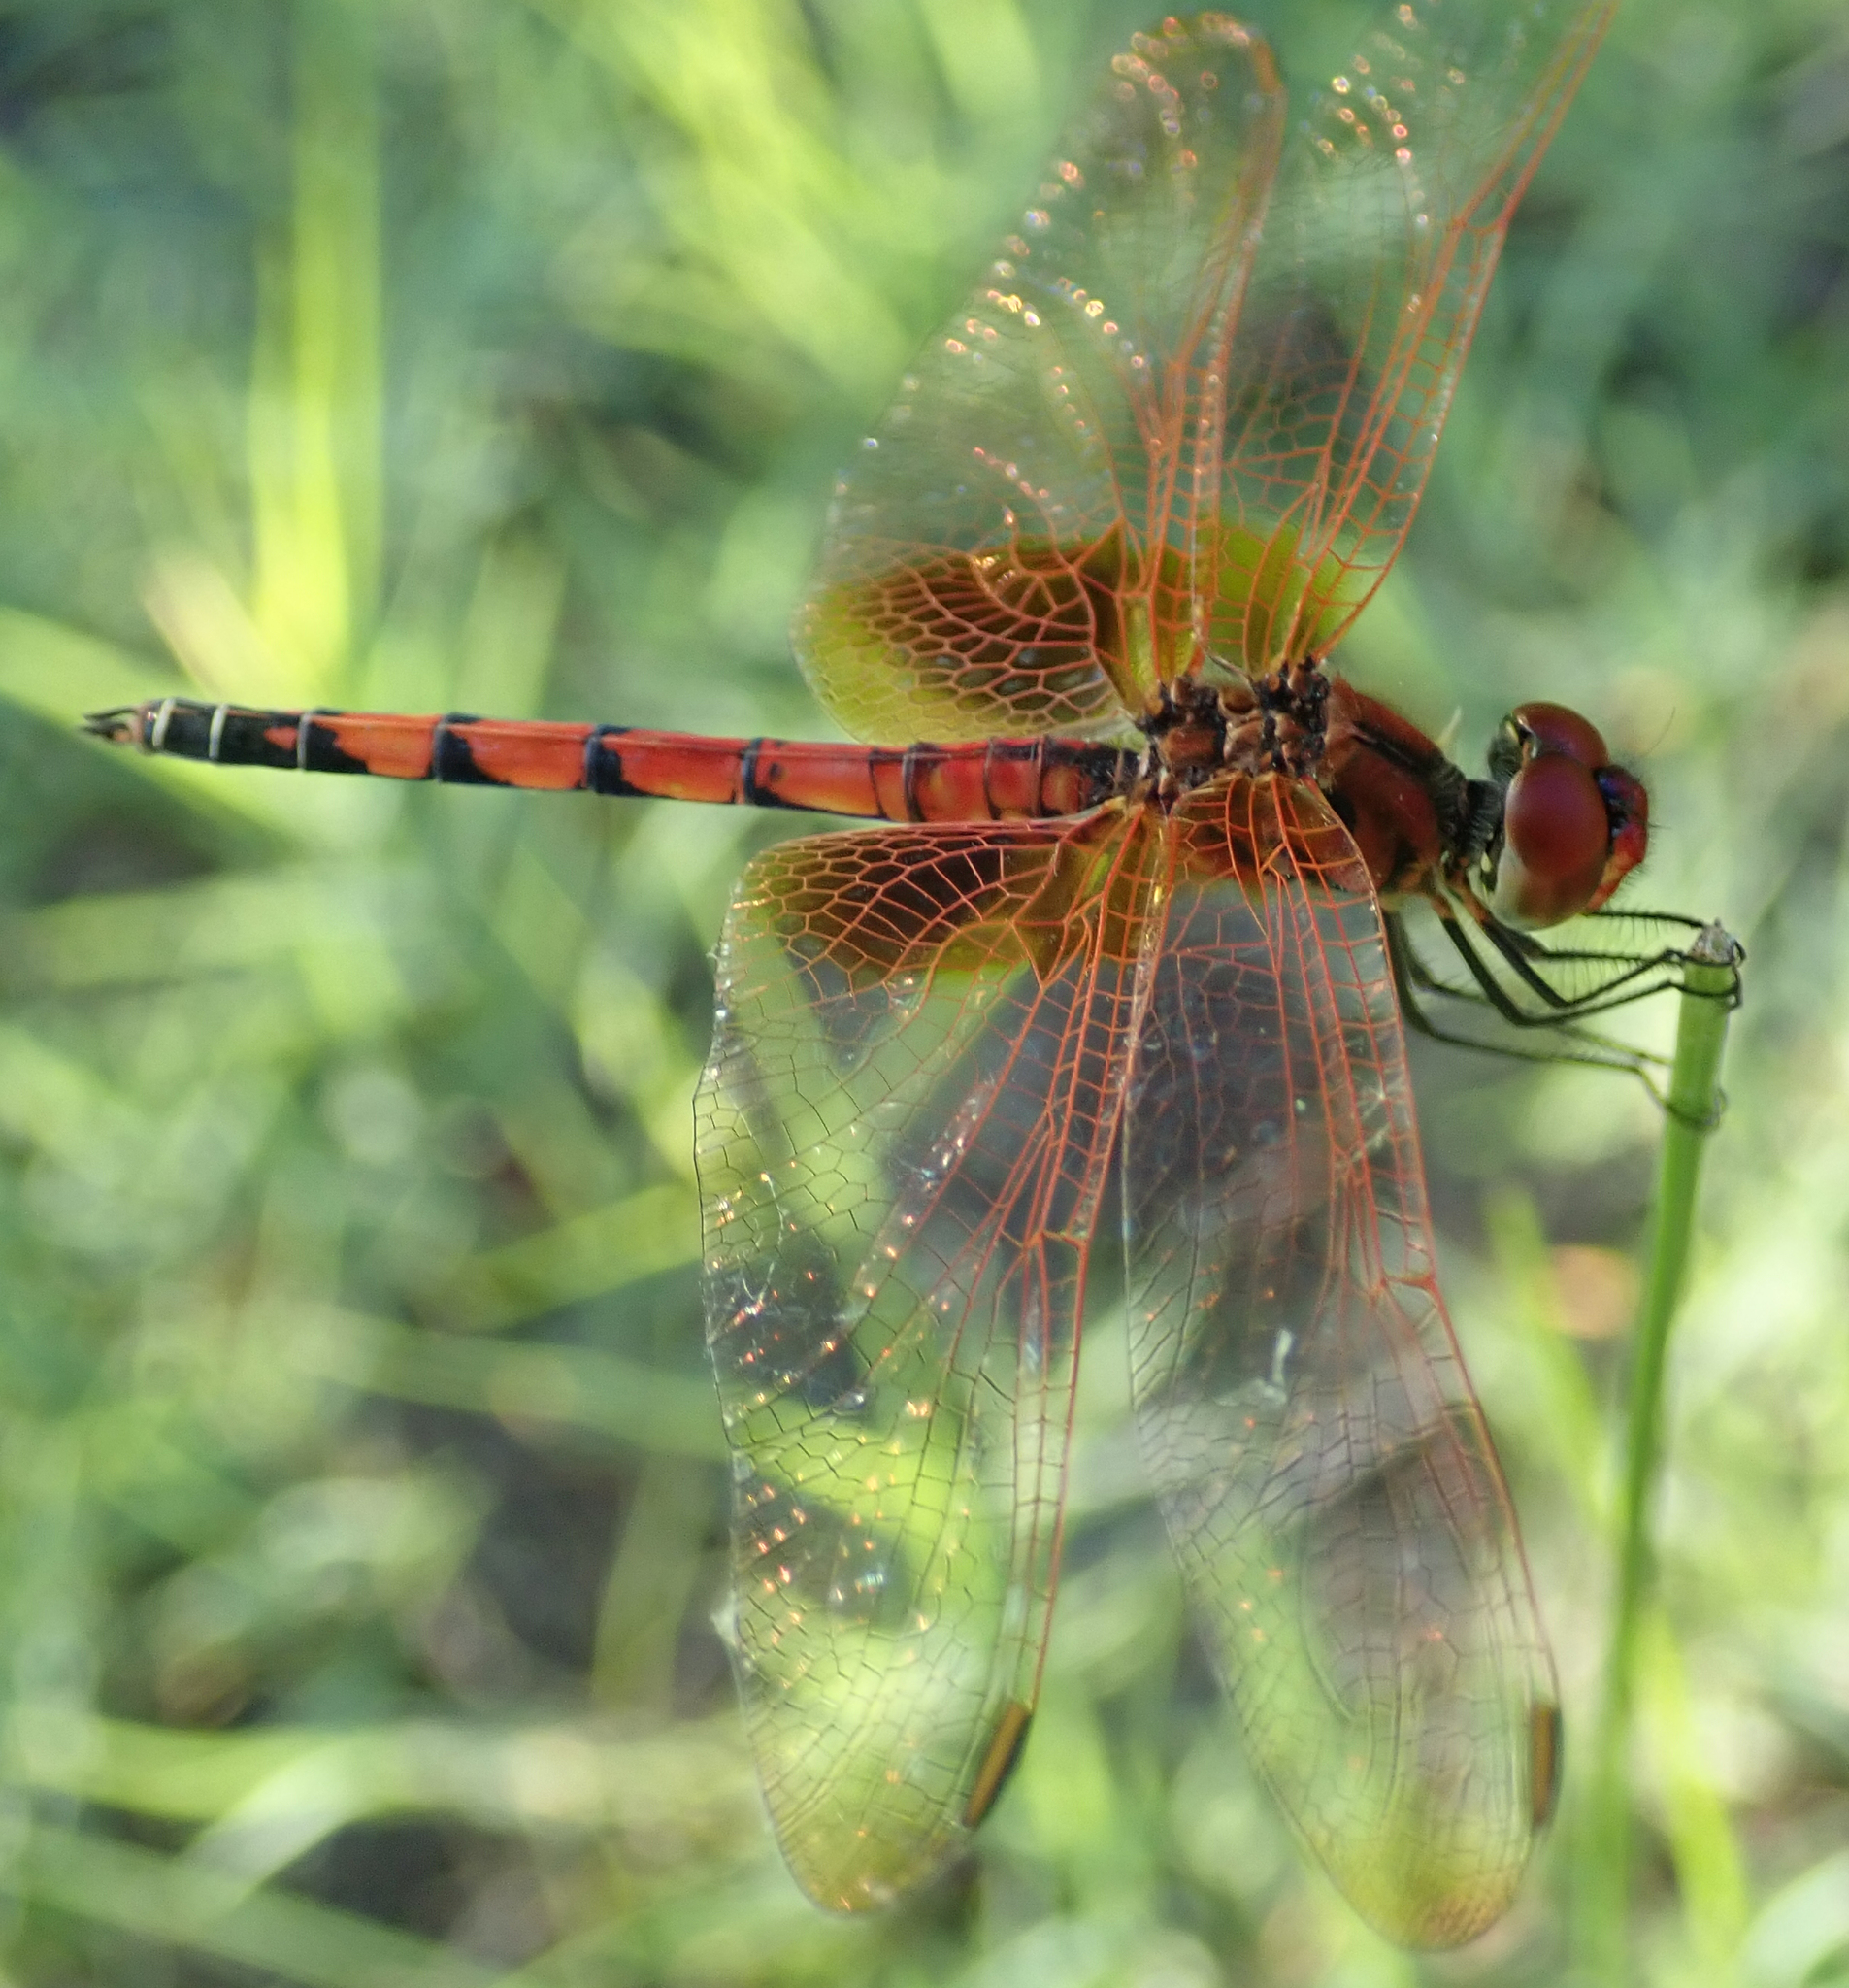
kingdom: Animalia
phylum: Arthropoda
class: Insecta
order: Odonata
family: Libellulidae
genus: Trithemis
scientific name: Trithemis monardi
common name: Monard's dropwing
